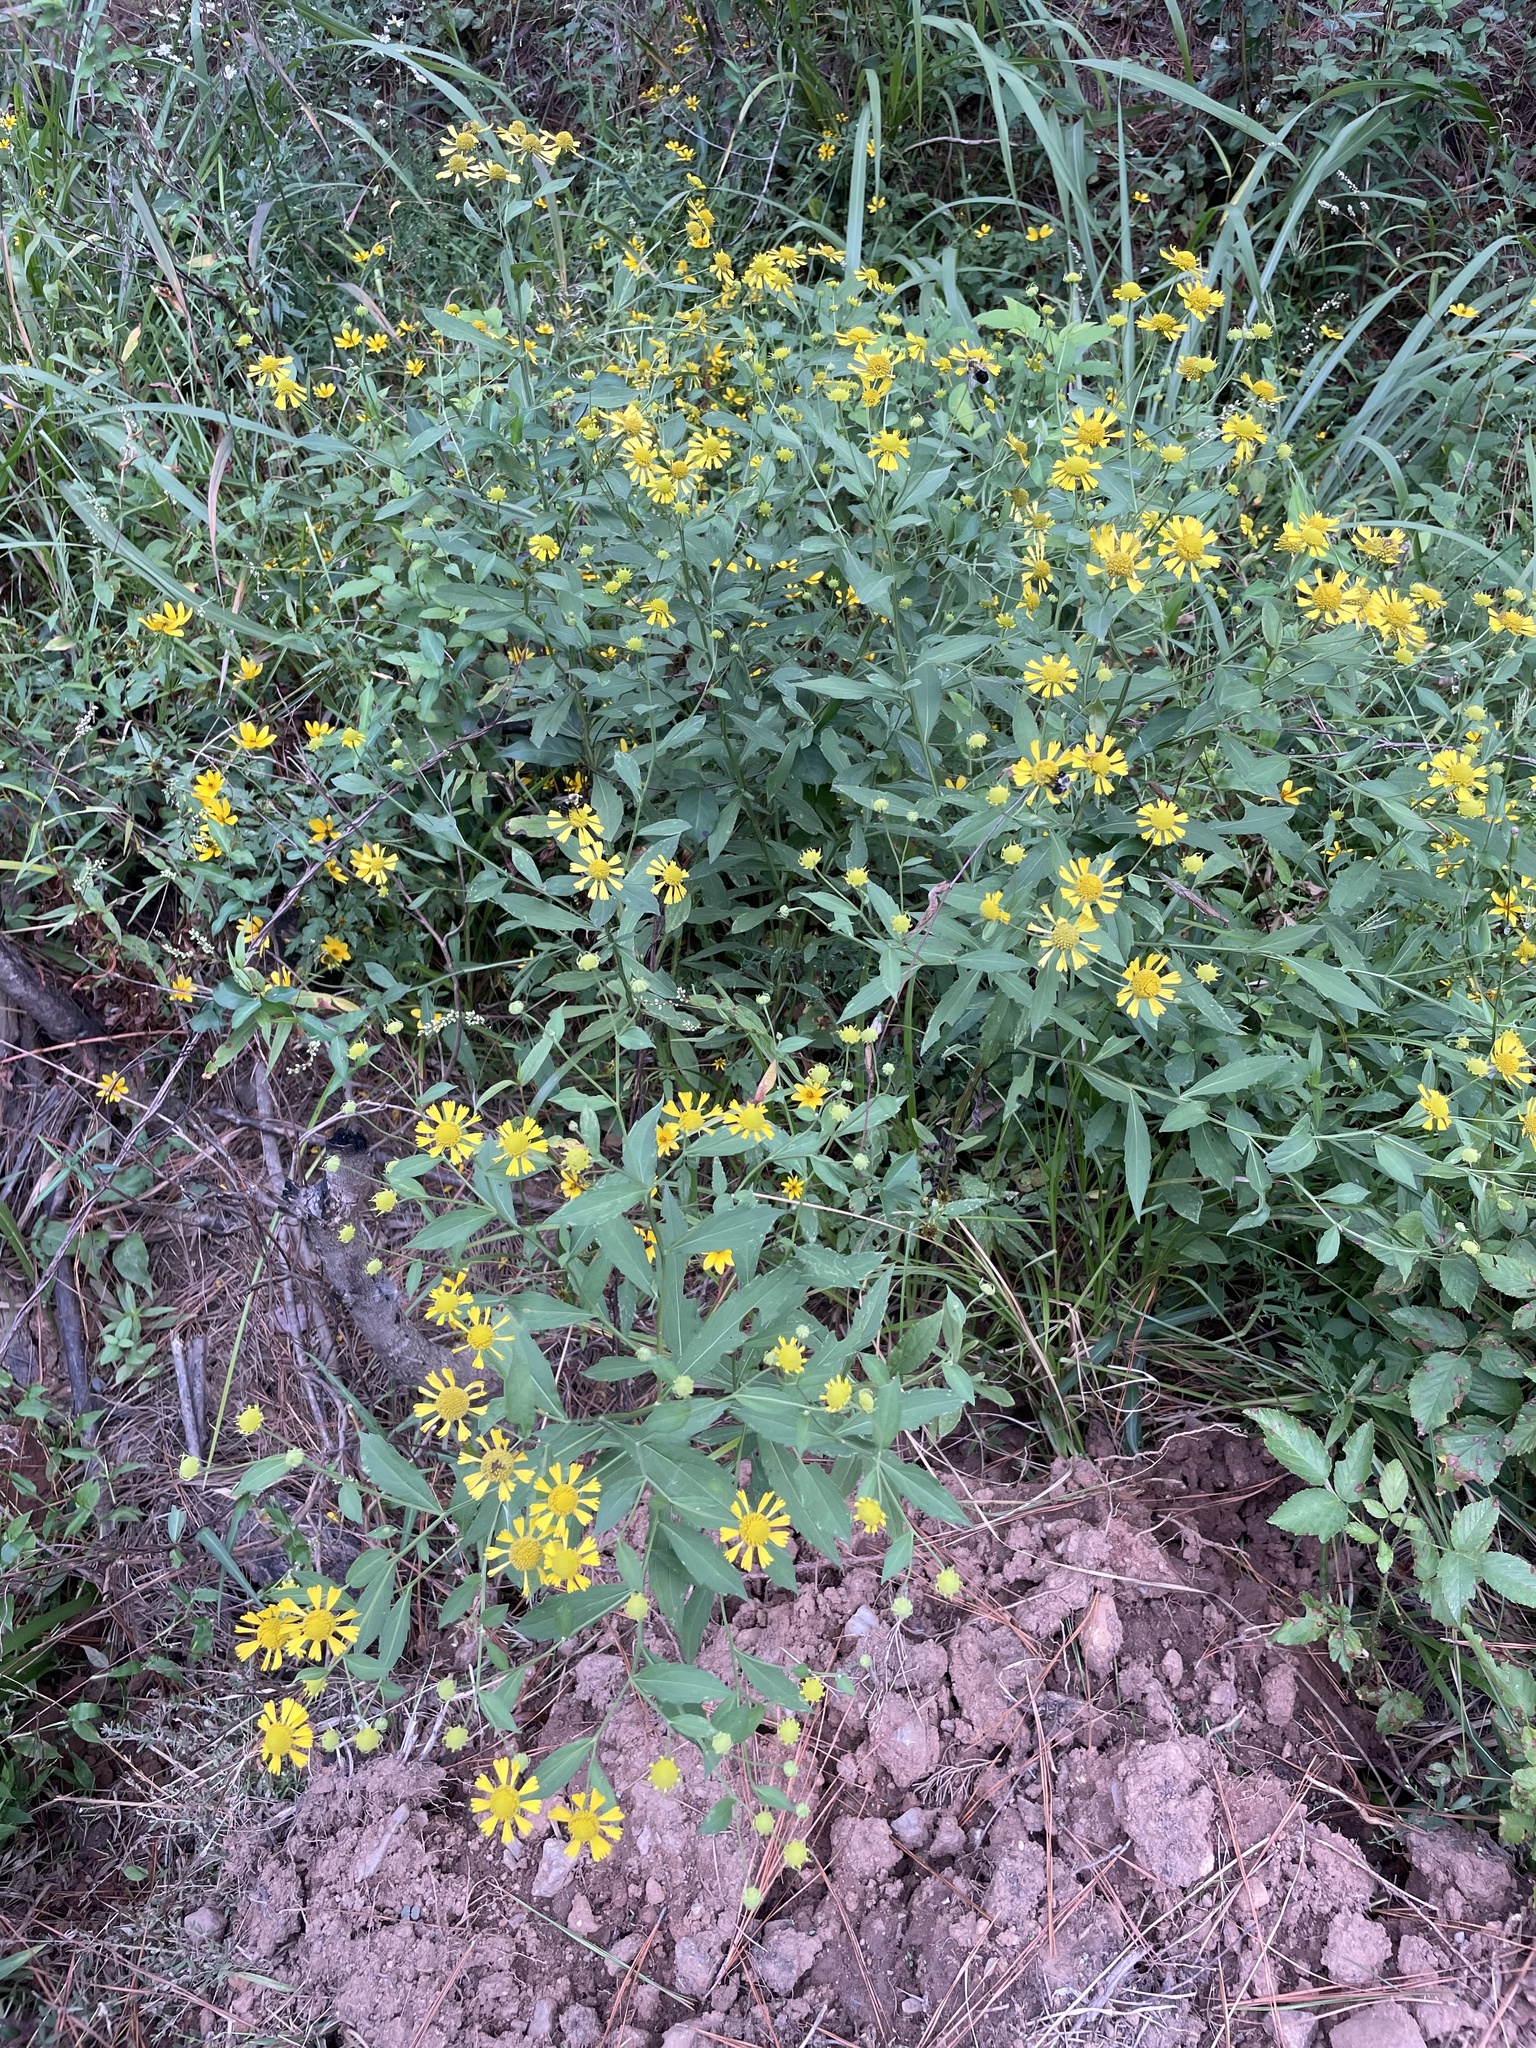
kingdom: Plantae
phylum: Tracheophyta
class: Magnoliopsida
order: Asterales
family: Asteraceae
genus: Helenium
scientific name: Helenium autumnale
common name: Sneezeweed
